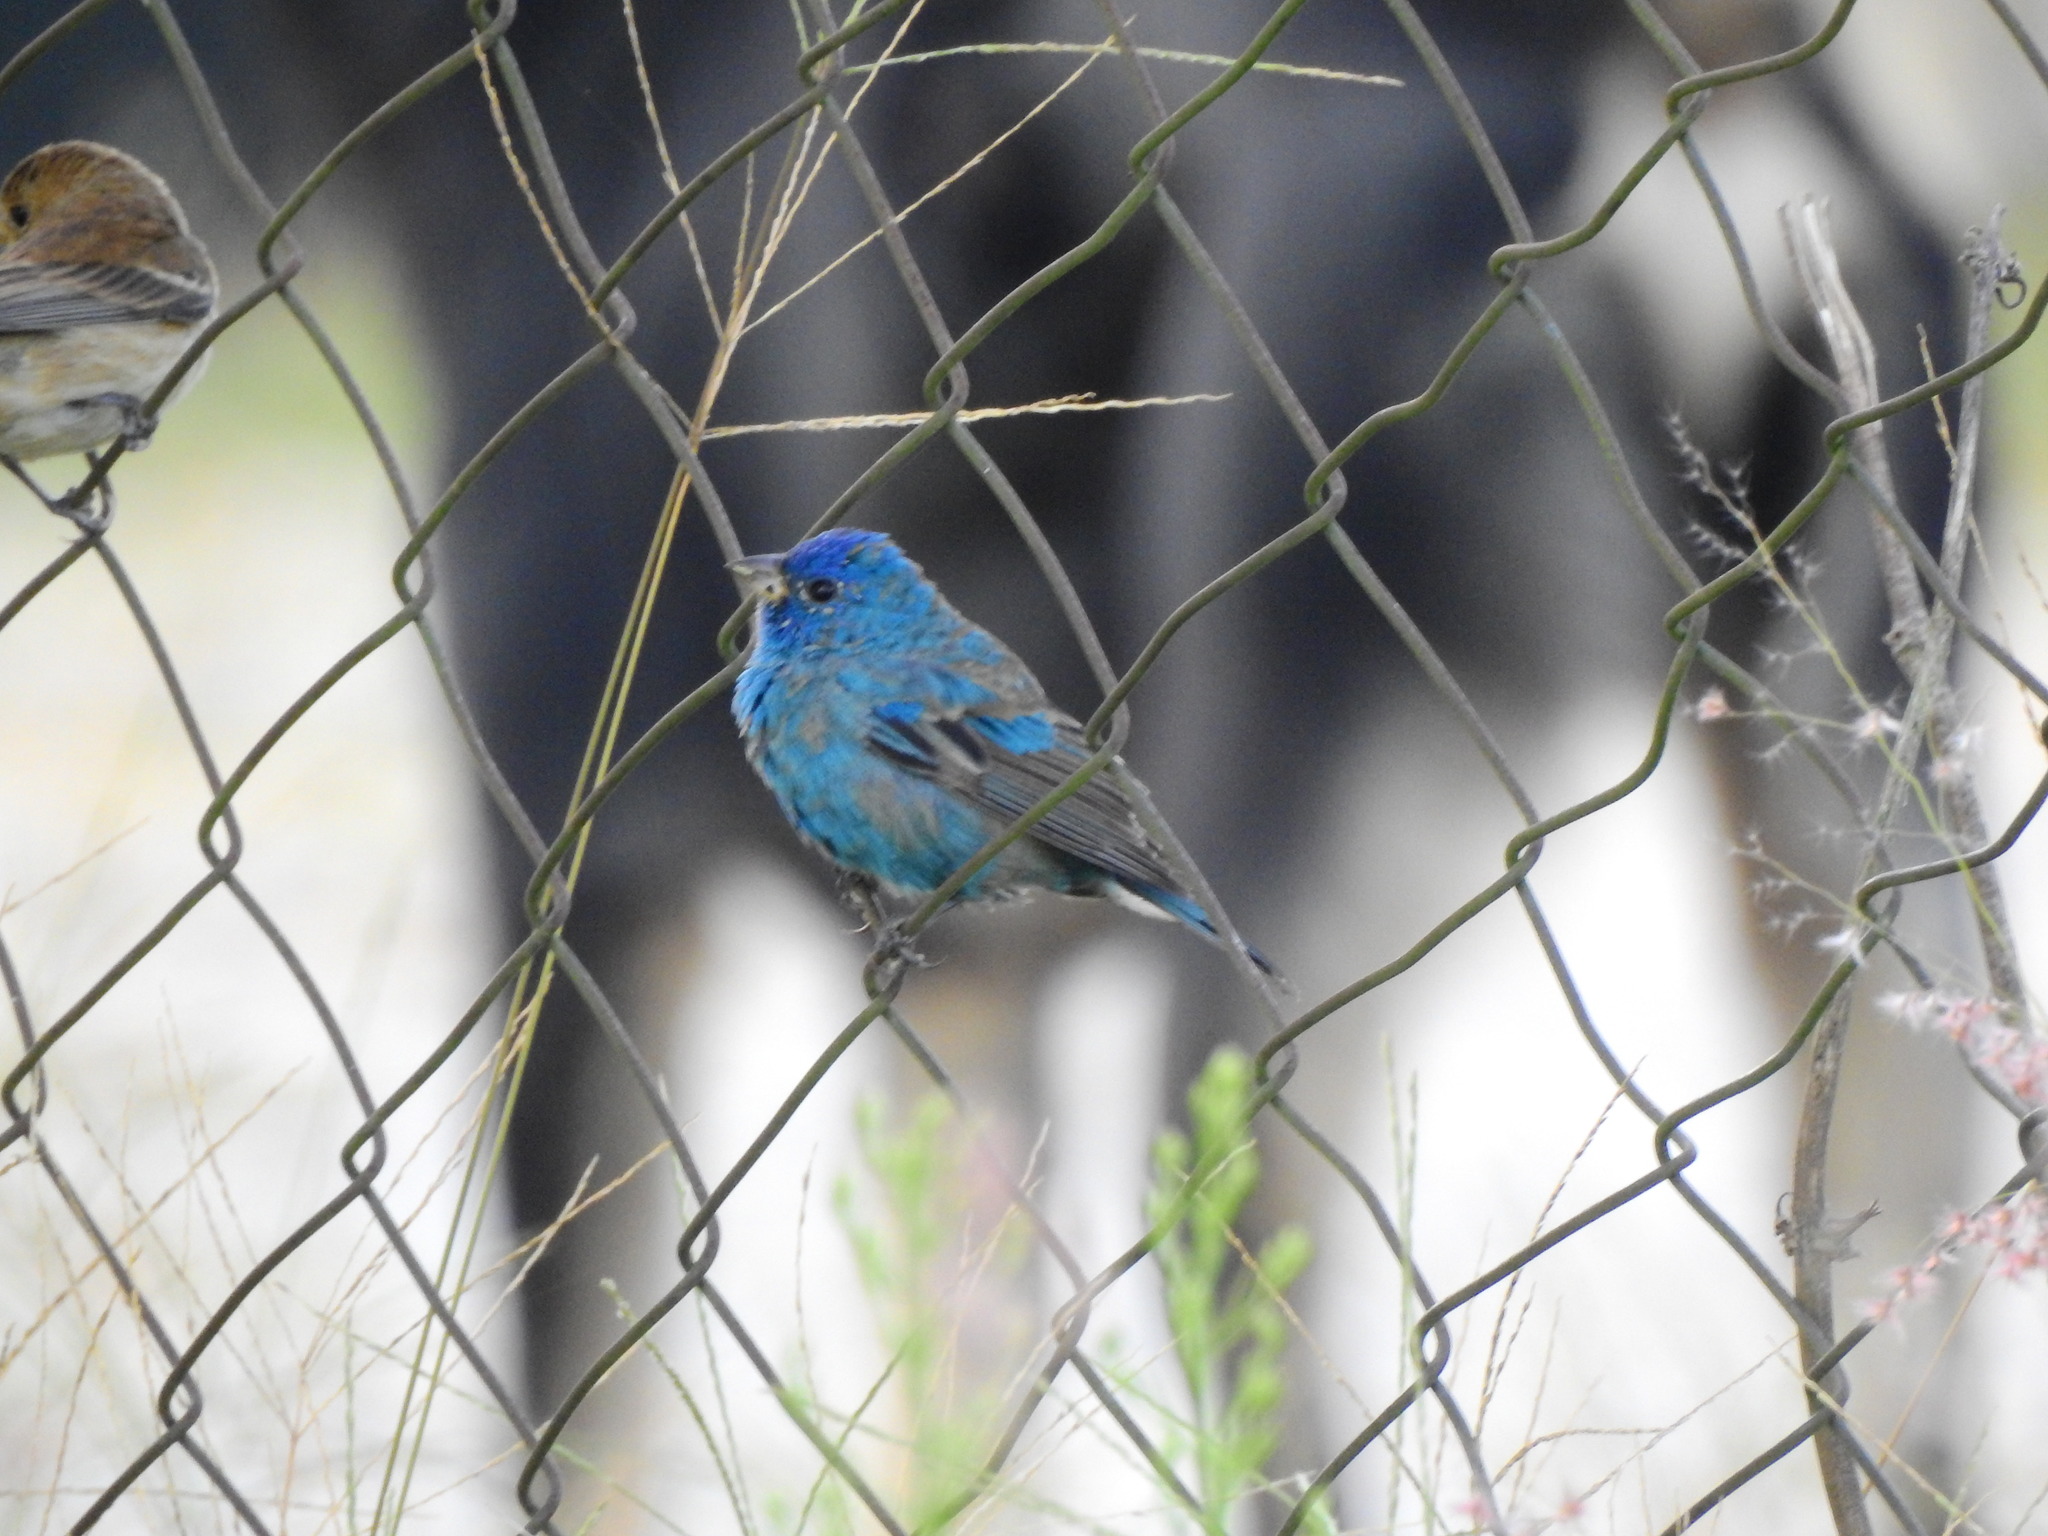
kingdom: Animalia
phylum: Chordata
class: Aves
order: Passeriformes
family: Cardinalidae
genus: Passerina
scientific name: Passerina cyanea
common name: Indigo bunting
